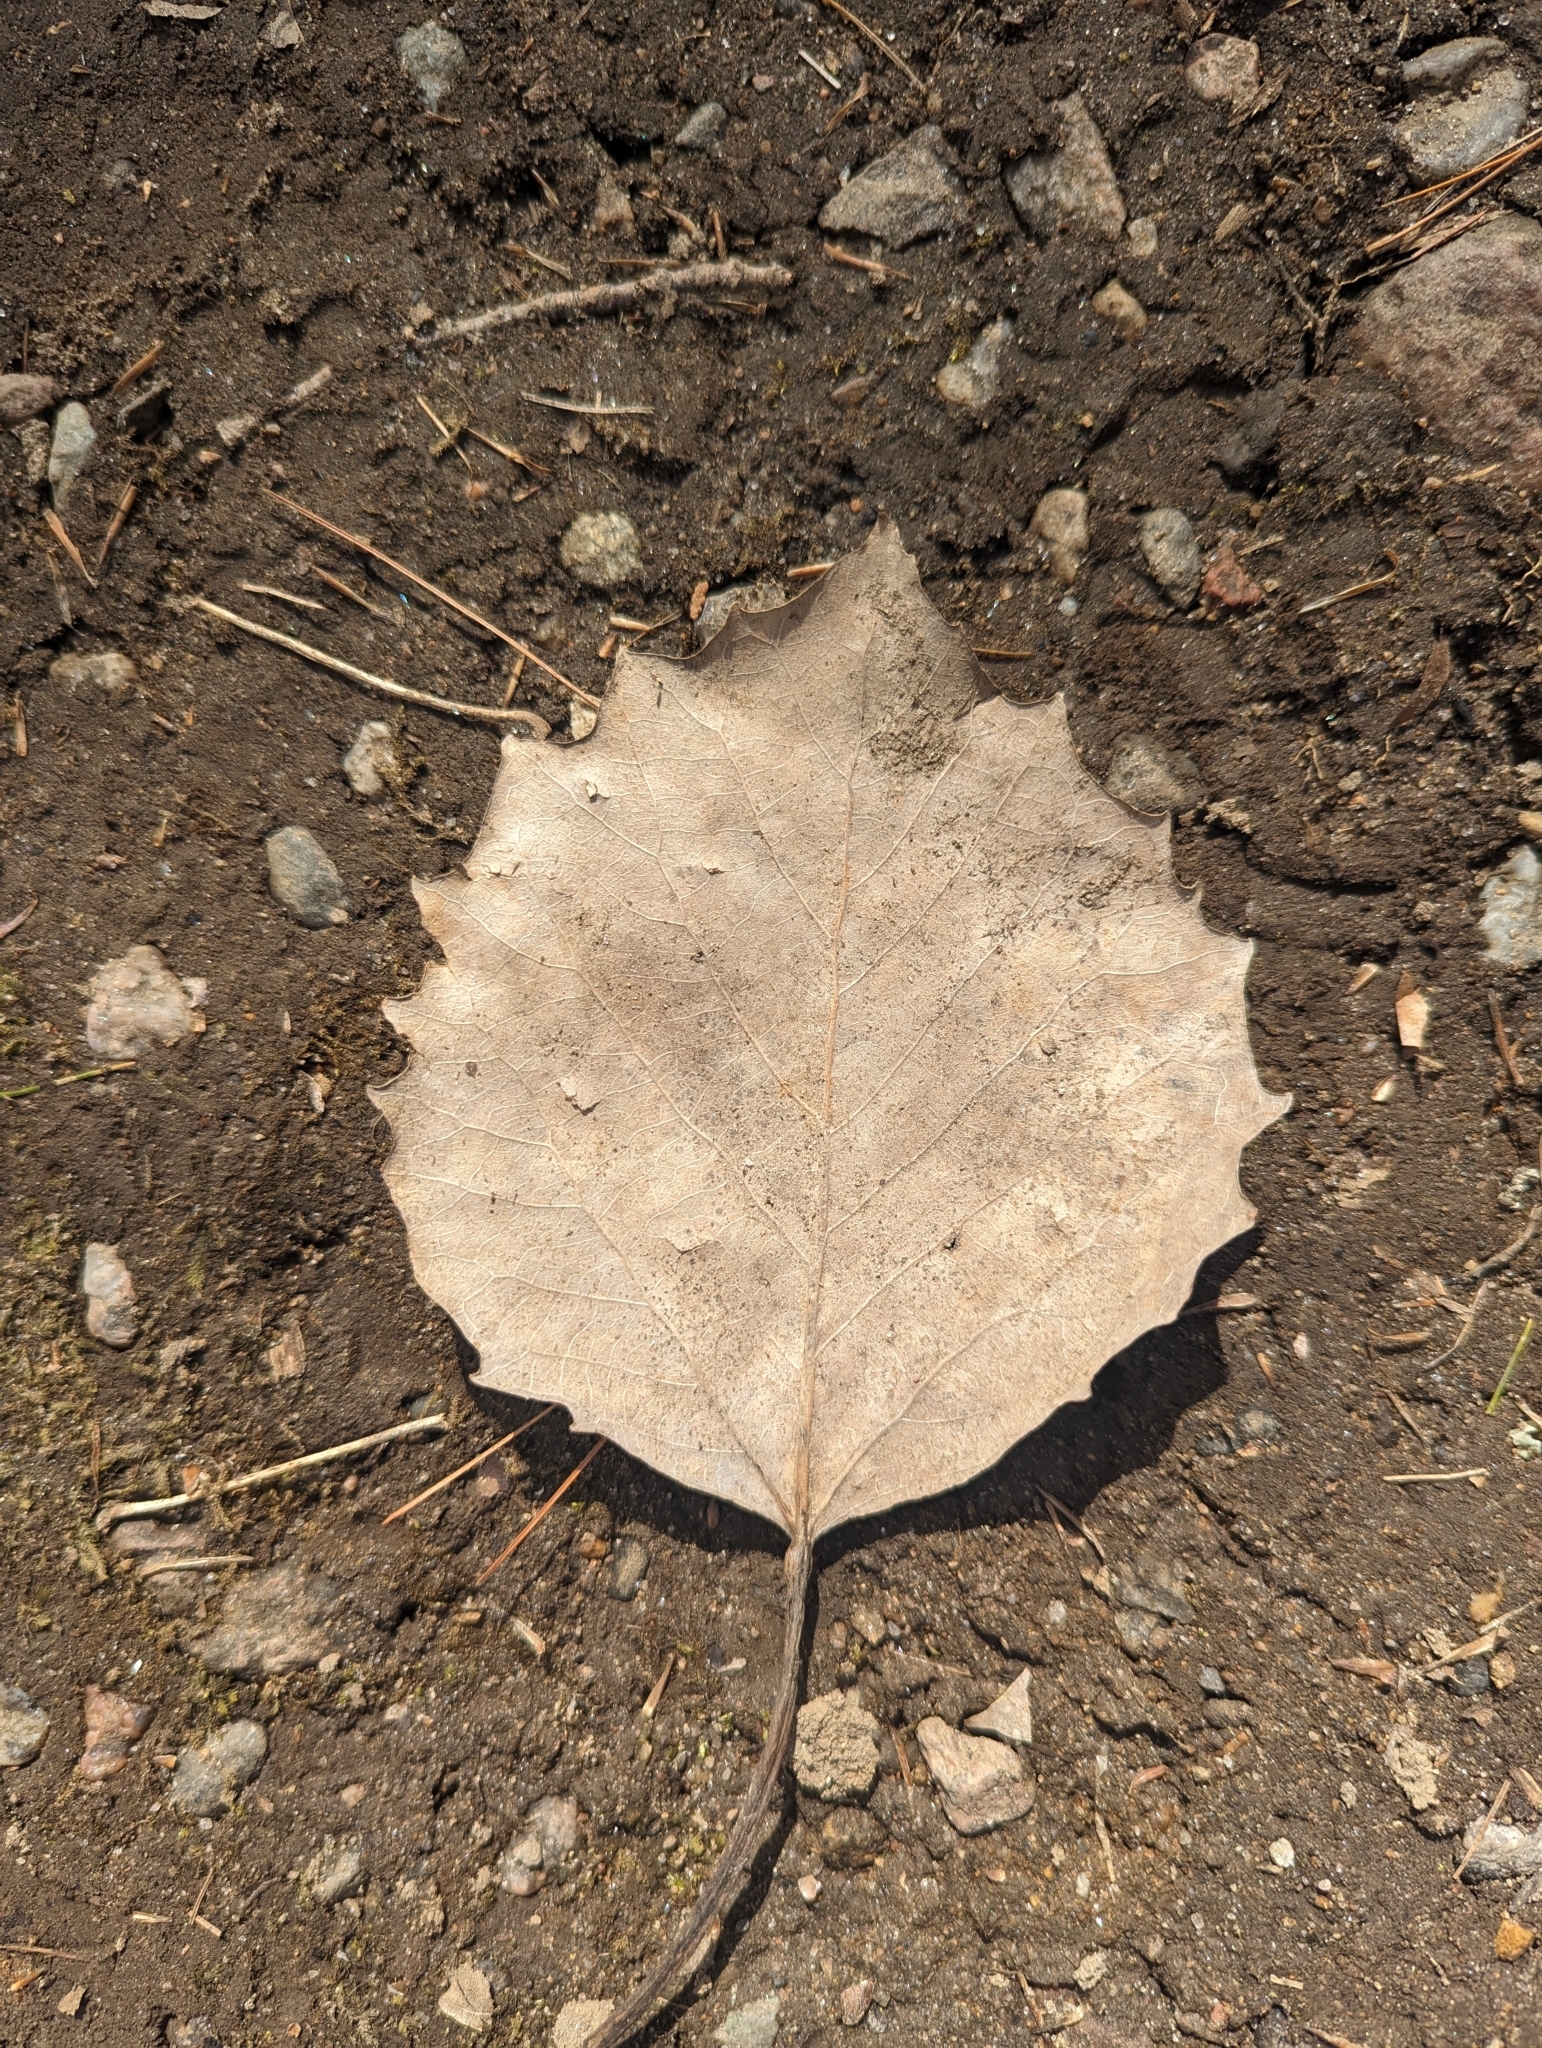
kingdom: Plantae
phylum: Tracheophyta
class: Magnoliopsida
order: Malpighiales
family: Salicaceae
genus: Populus
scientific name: Populus grandidentata
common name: Bigtooth aspen
